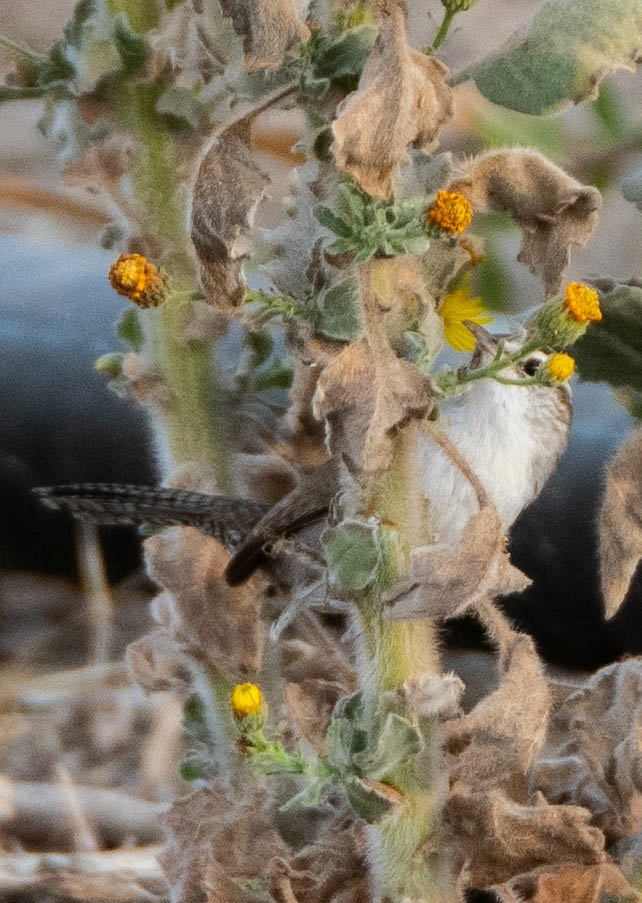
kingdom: Animalia
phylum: Chordata
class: Aves
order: Passeriformes
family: Troglodytidae
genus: Thryomanes
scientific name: Thryomanes bewickii
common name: Bewick's wren
